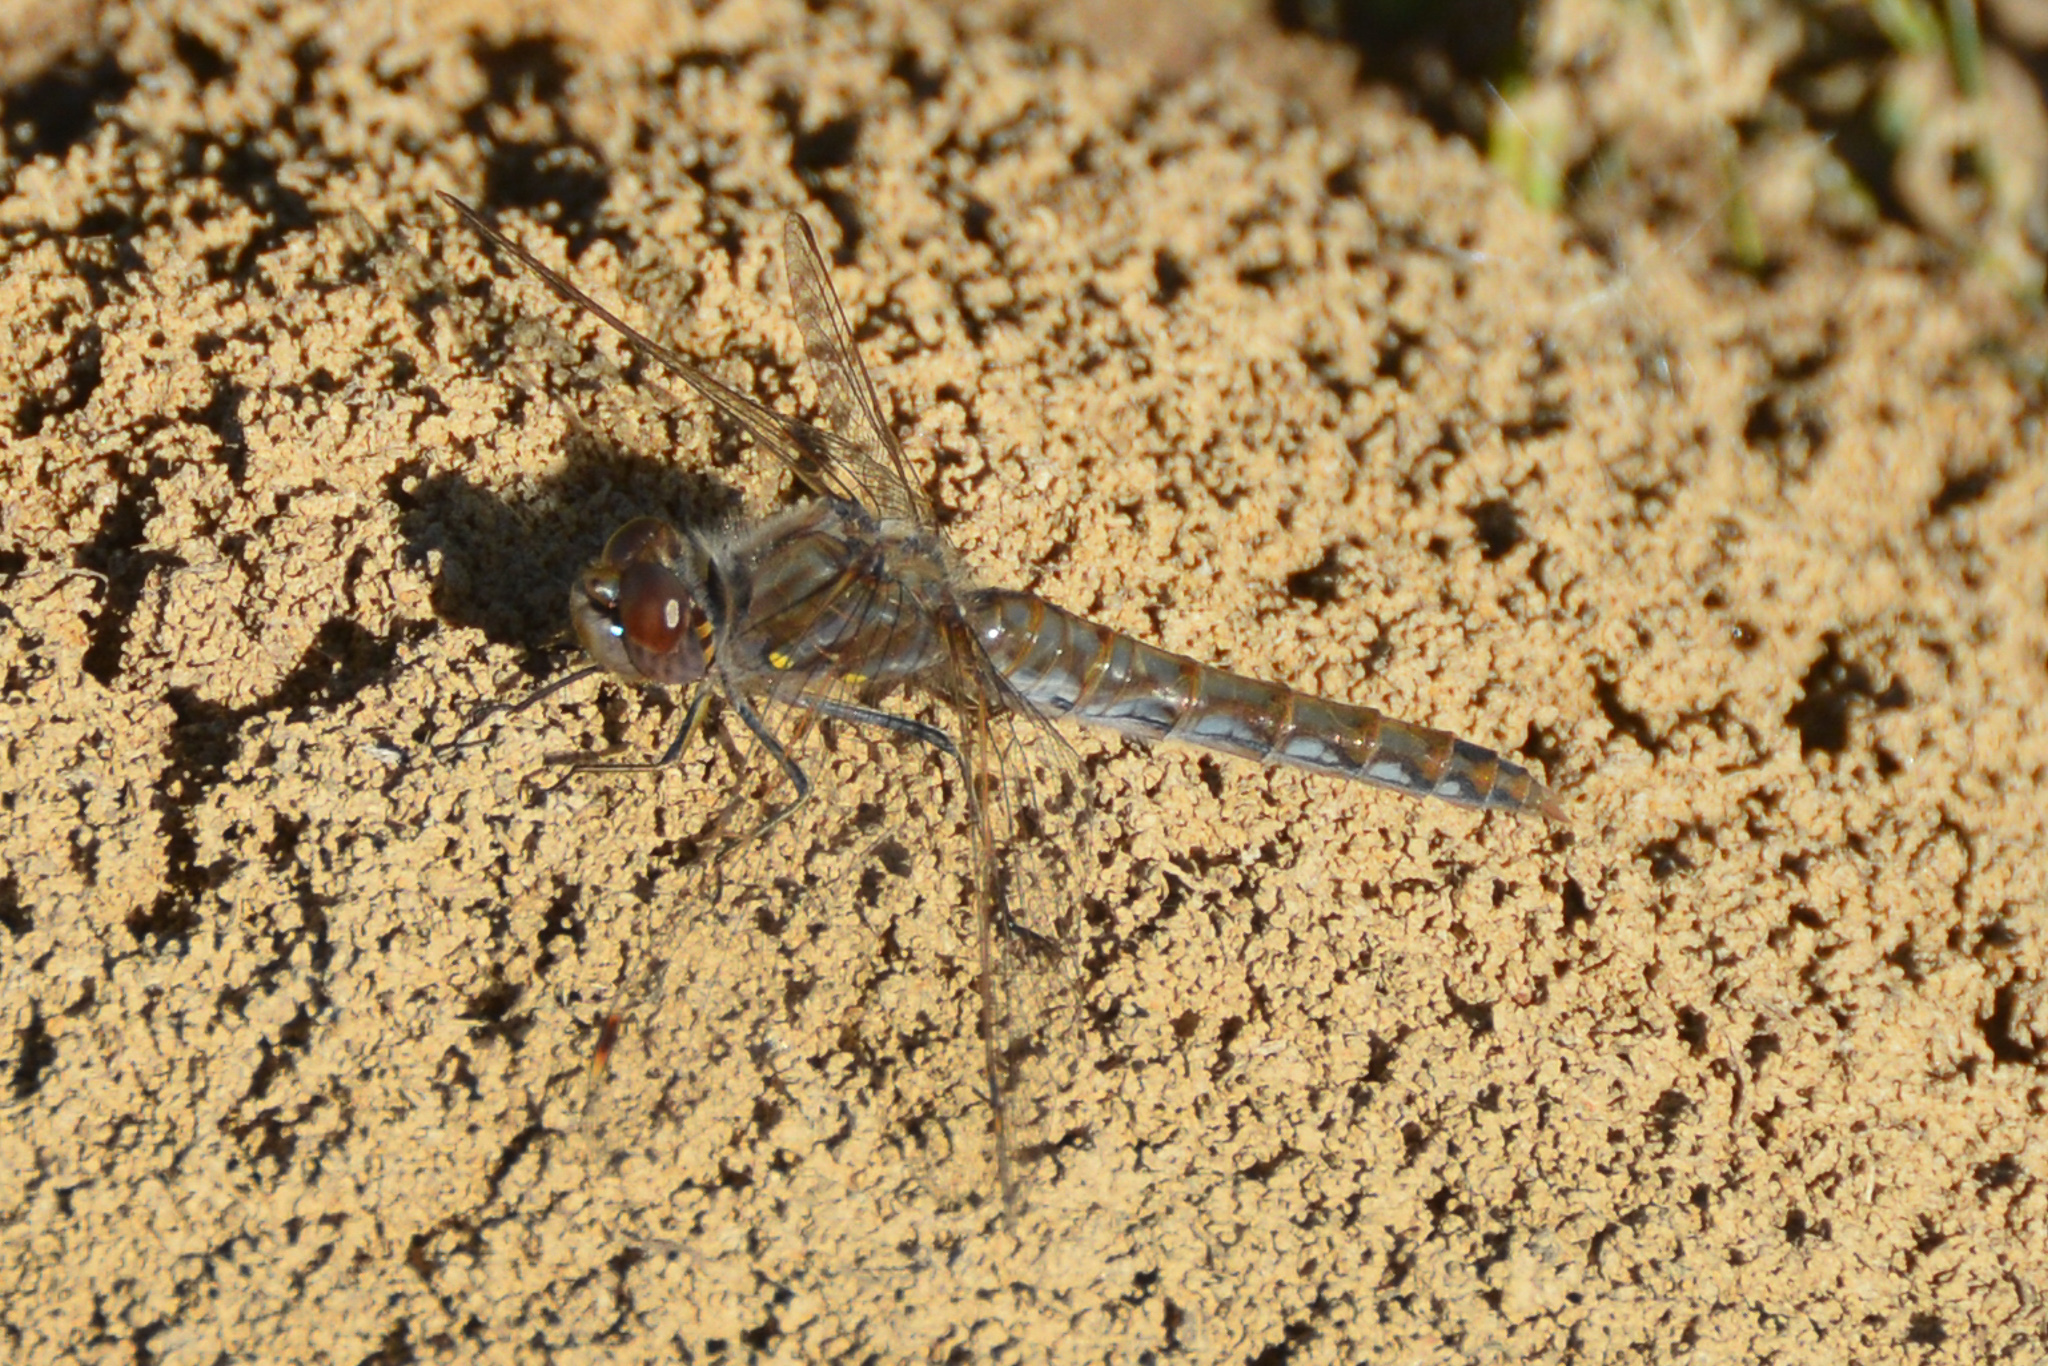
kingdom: Animalia
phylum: Arthropoda
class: Insecta
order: Odonata
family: Libellulidae
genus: Sympetrum
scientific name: Sympetrum corruptum
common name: Variegated meadowhawk
